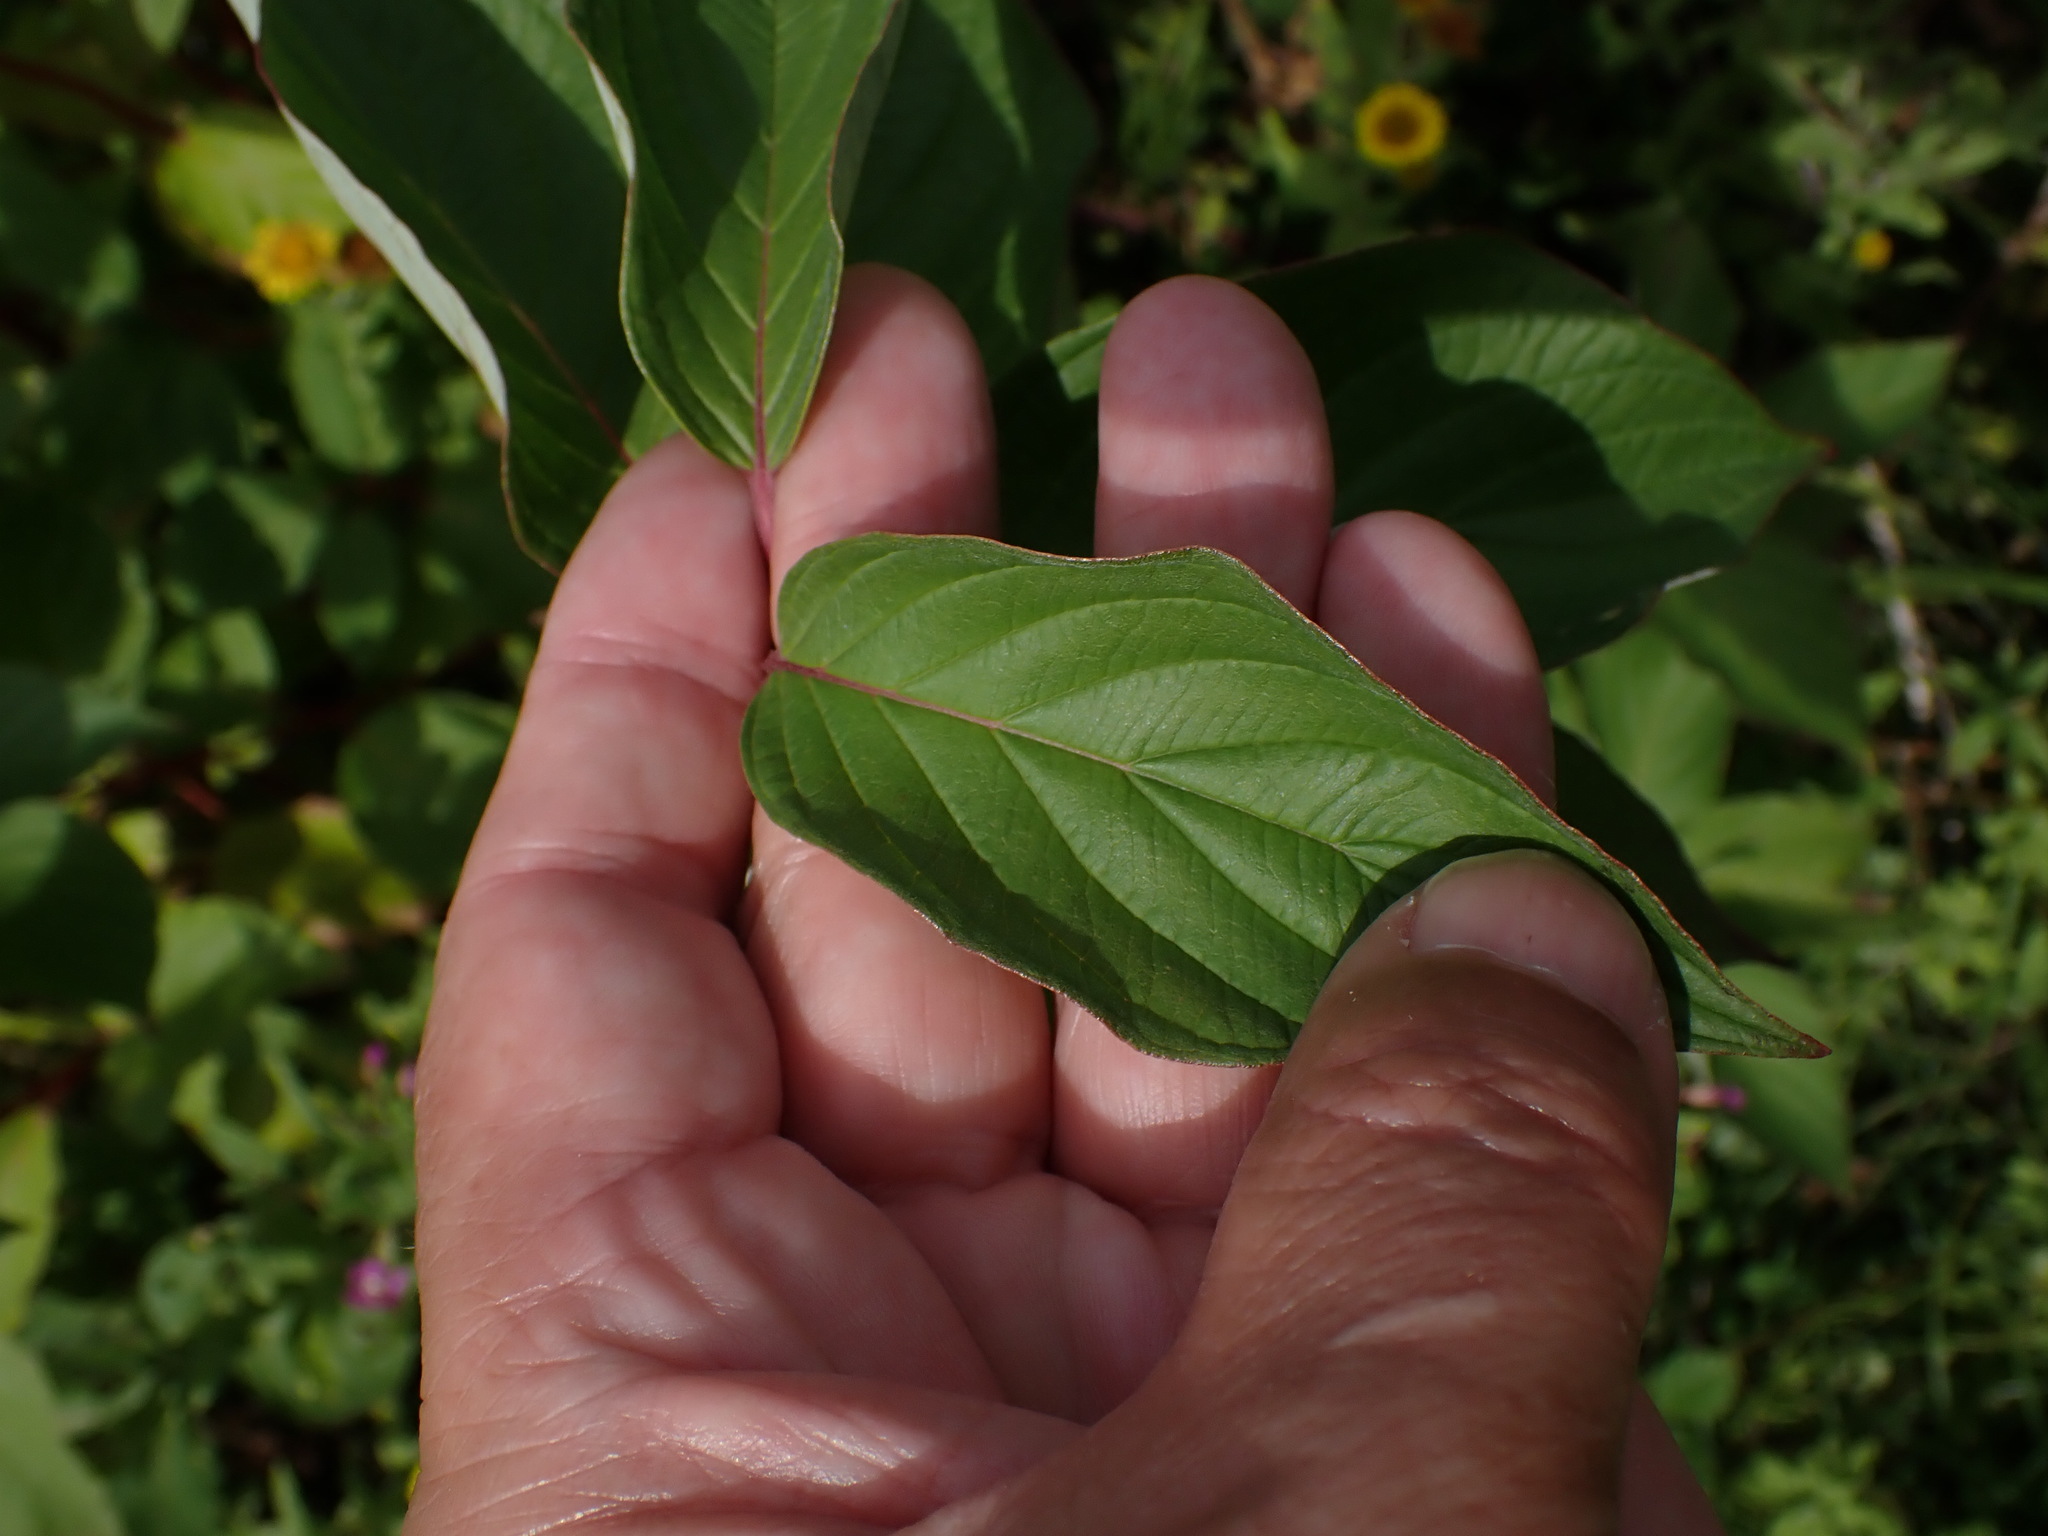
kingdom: Plantae
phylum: Tracheophyta
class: Magnoliopsida
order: Cornales
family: Cornaceae
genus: Cornus
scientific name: Cornus sericea
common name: Red-osier dogwood
